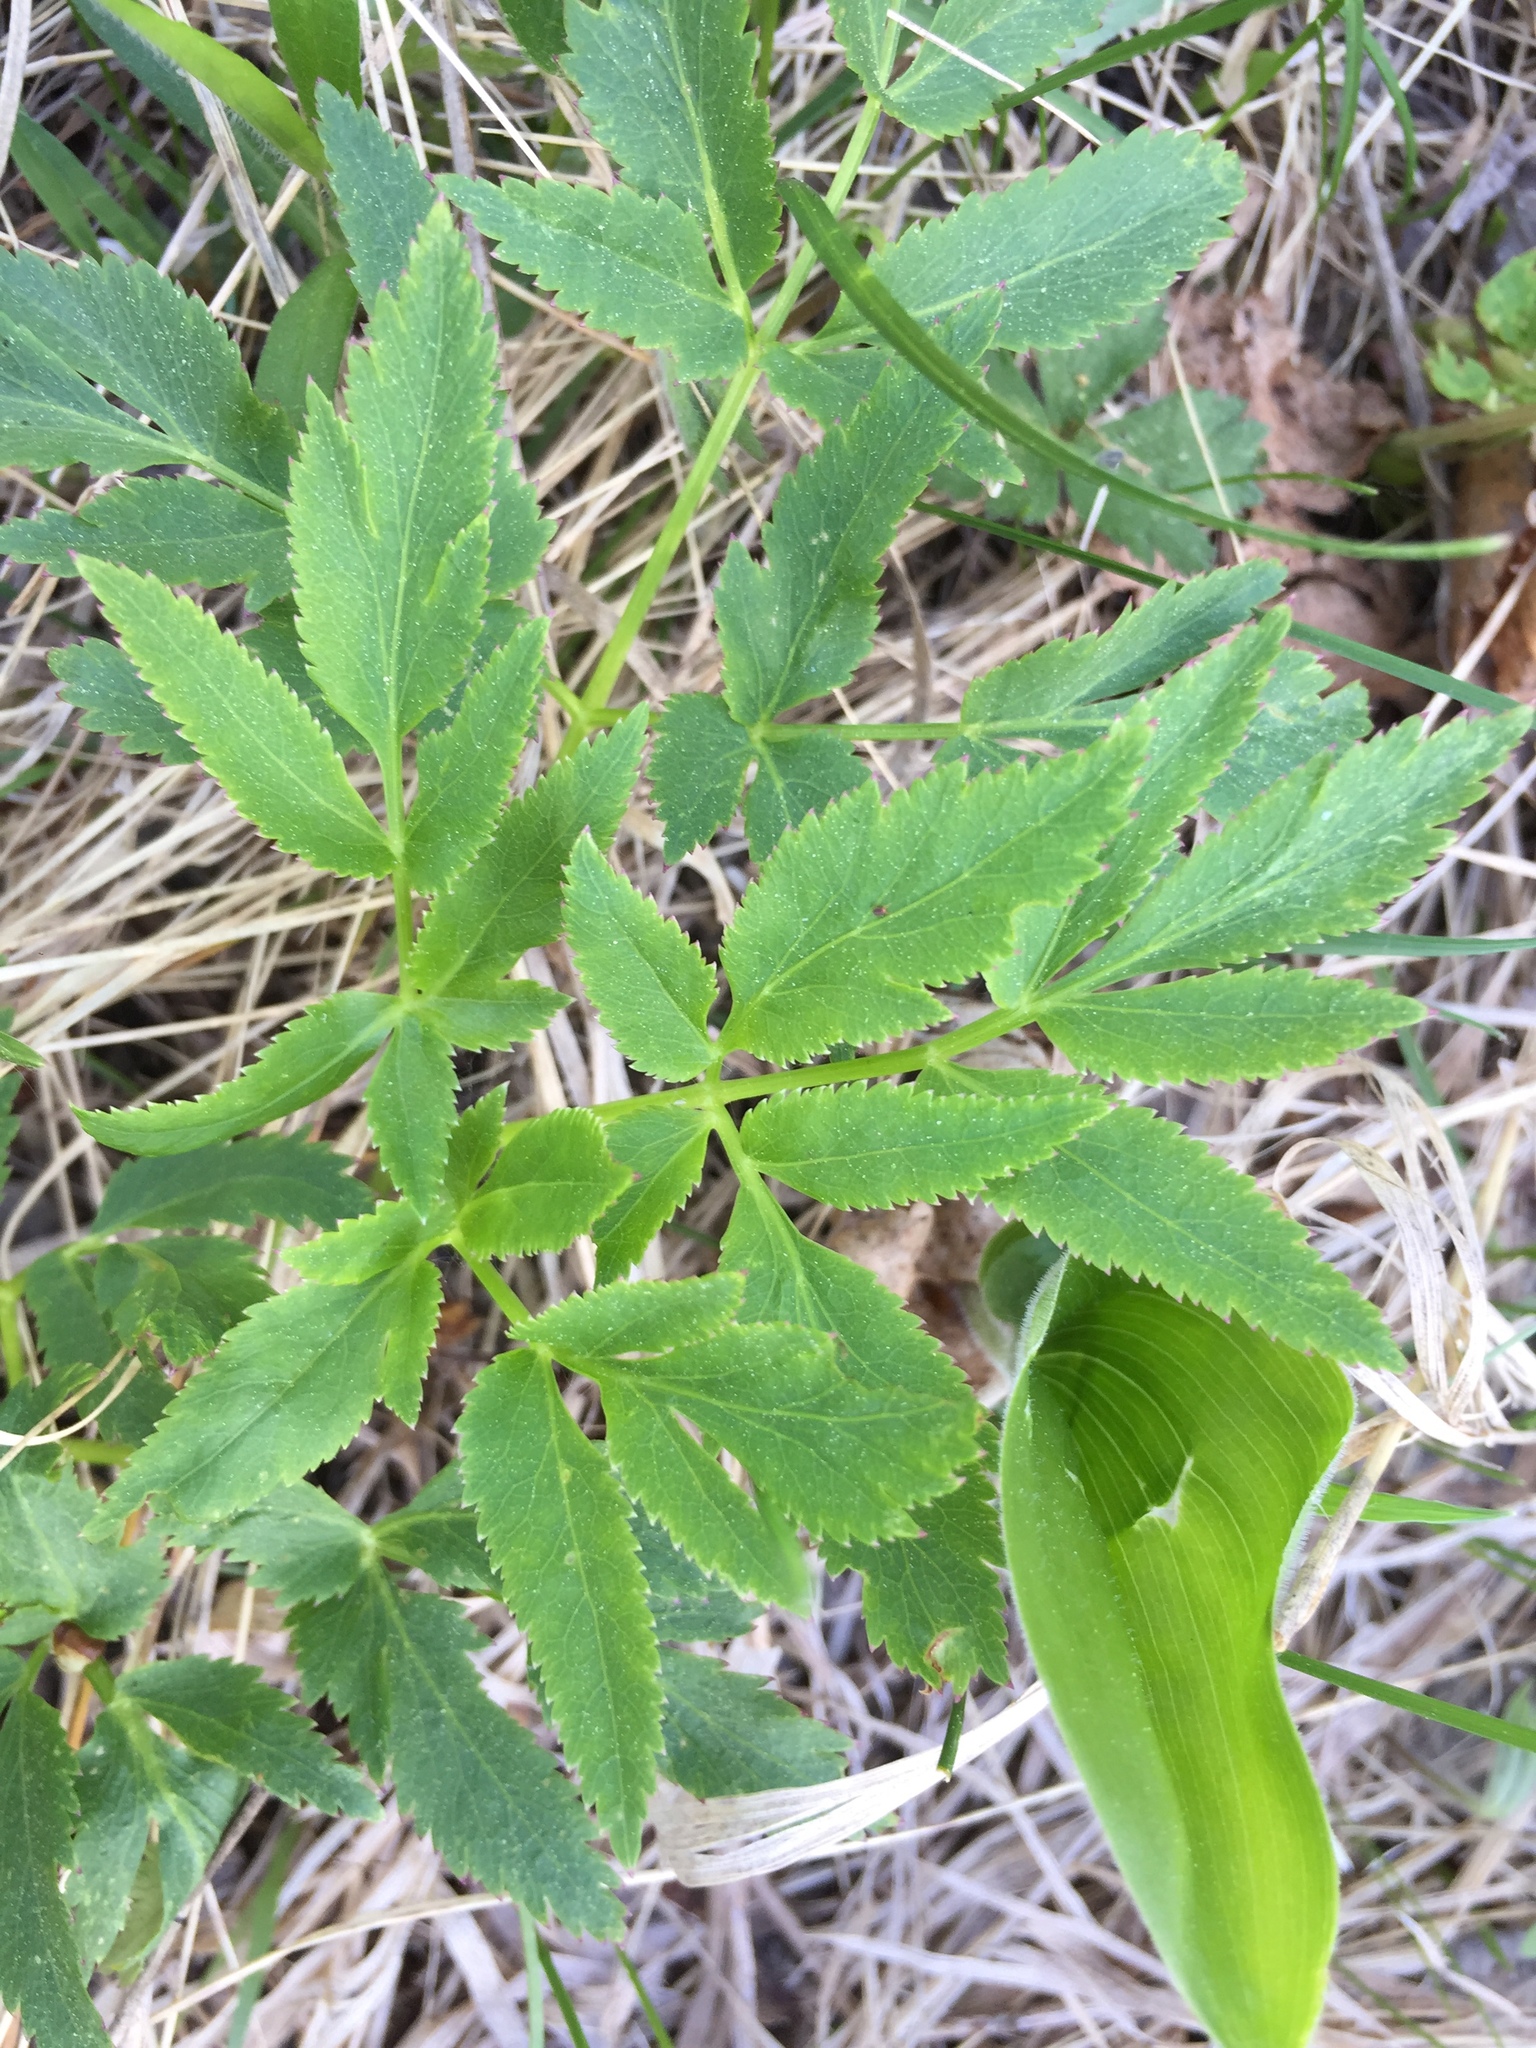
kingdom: Plantae
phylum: Tracheophyta
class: Magnoliopsida
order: Apiales
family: Apiaceae
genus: Zizia
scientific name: Zizia aurea
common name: Golden alexanders
